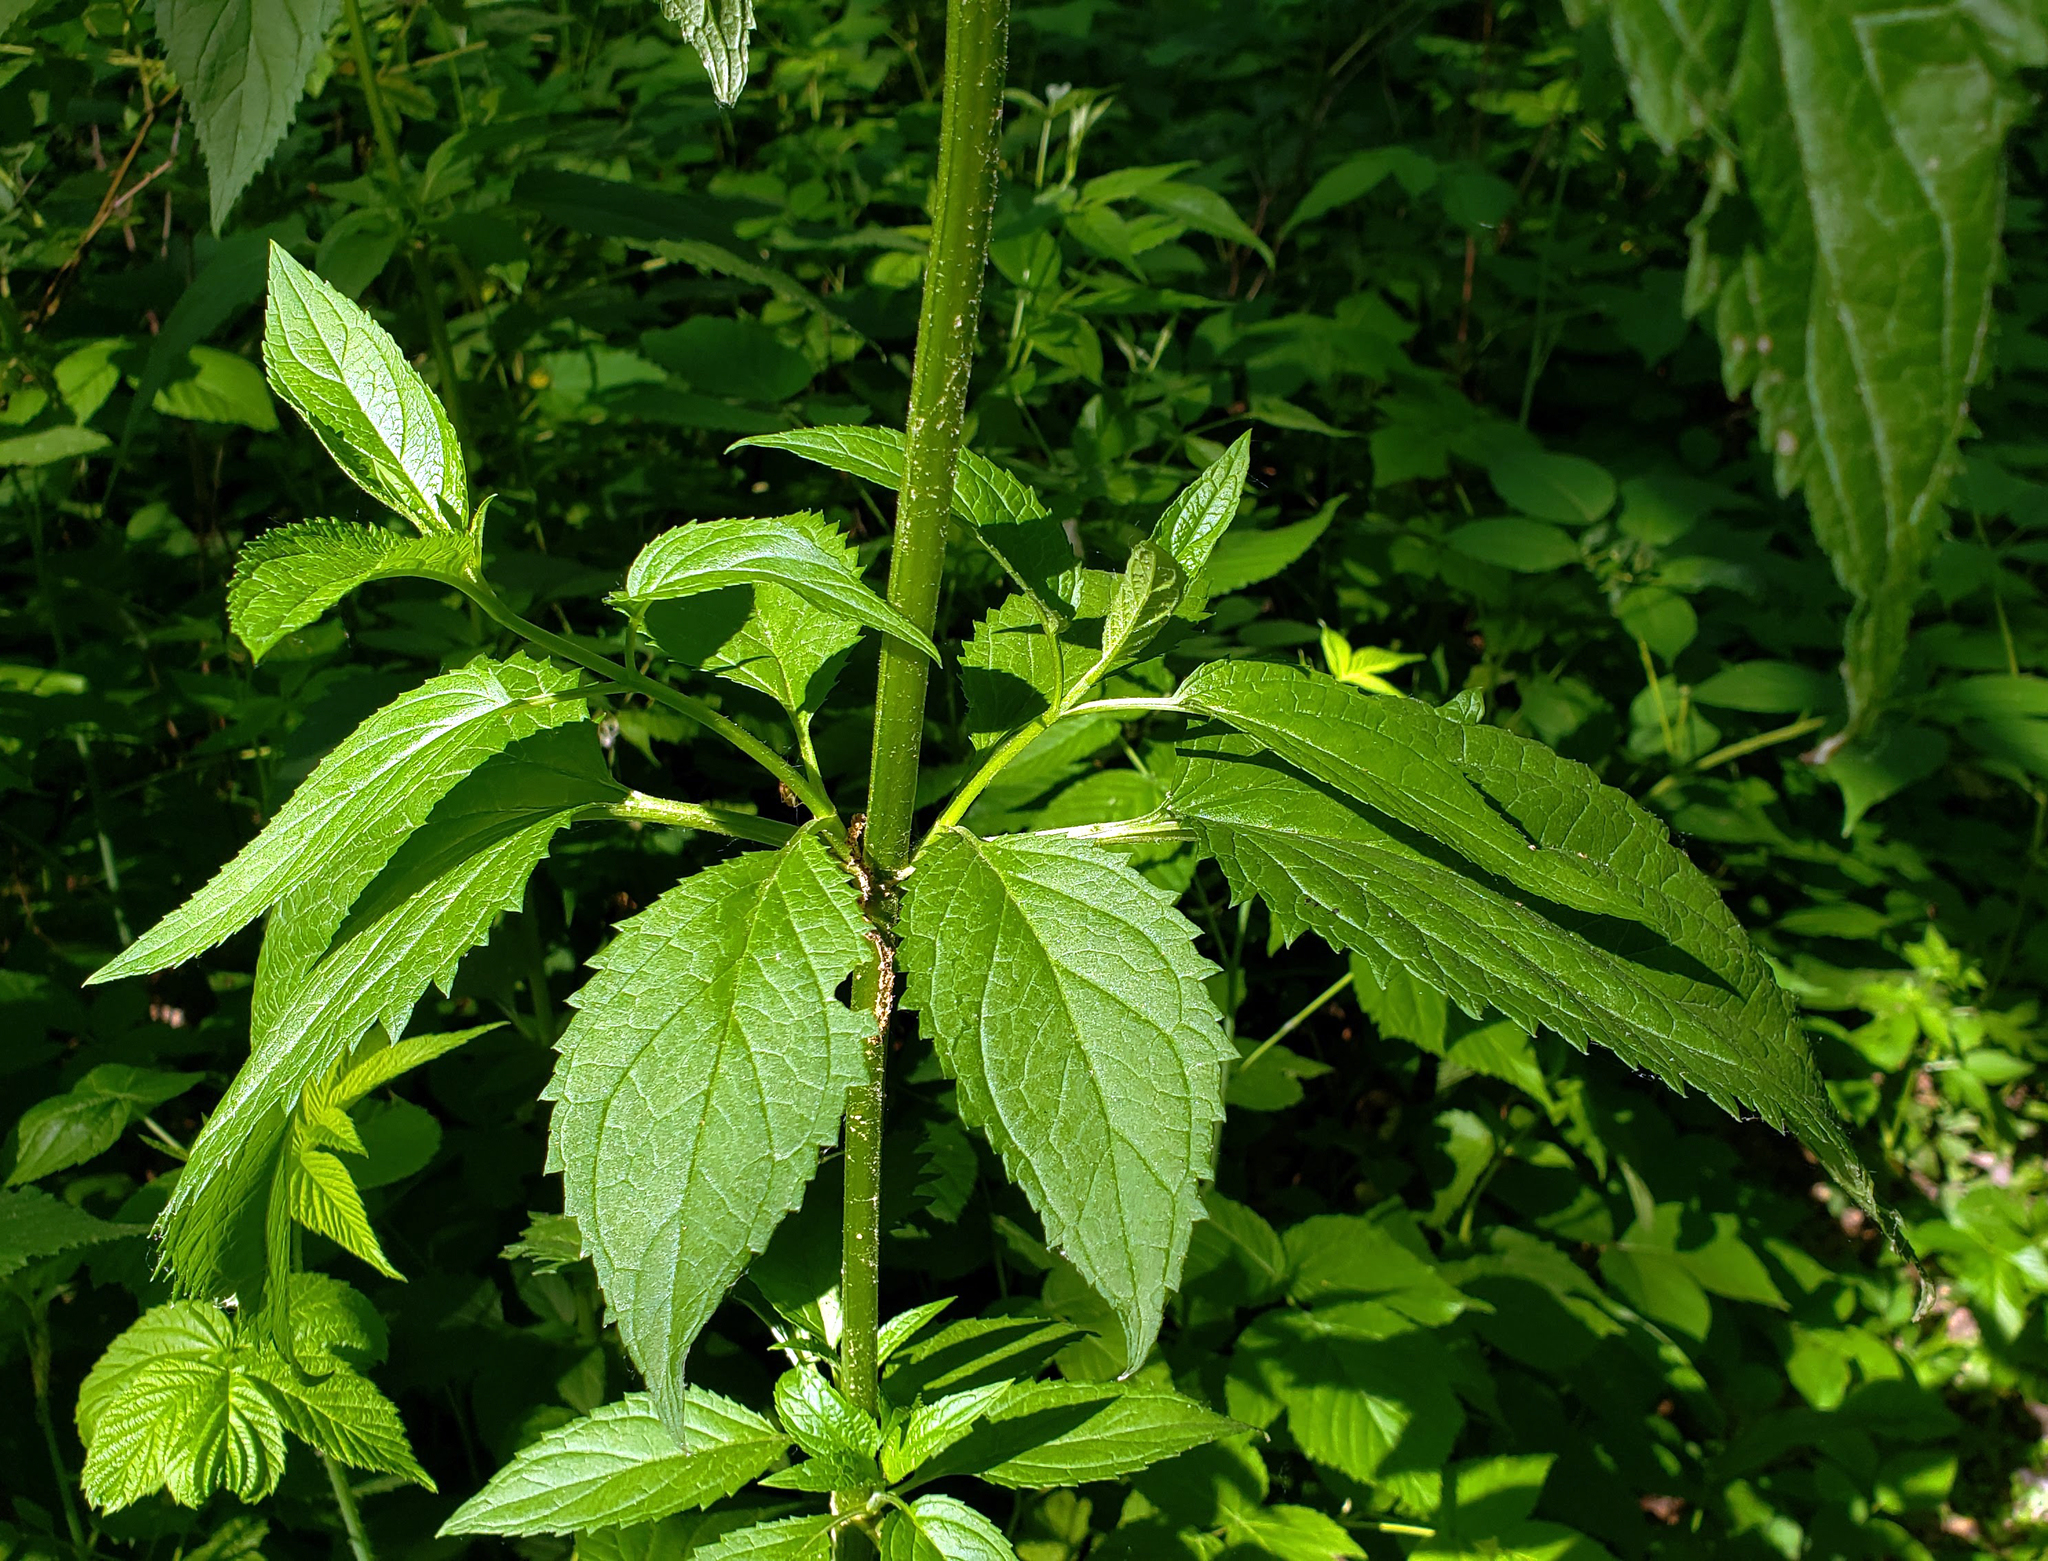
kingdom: Plantae
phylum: Tracheophyta
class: Magnoliopsida
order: Lamiales
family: Scrophulariaceae
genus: Scrophularia
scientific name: Scrophularia lanceolata
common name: American figwort
